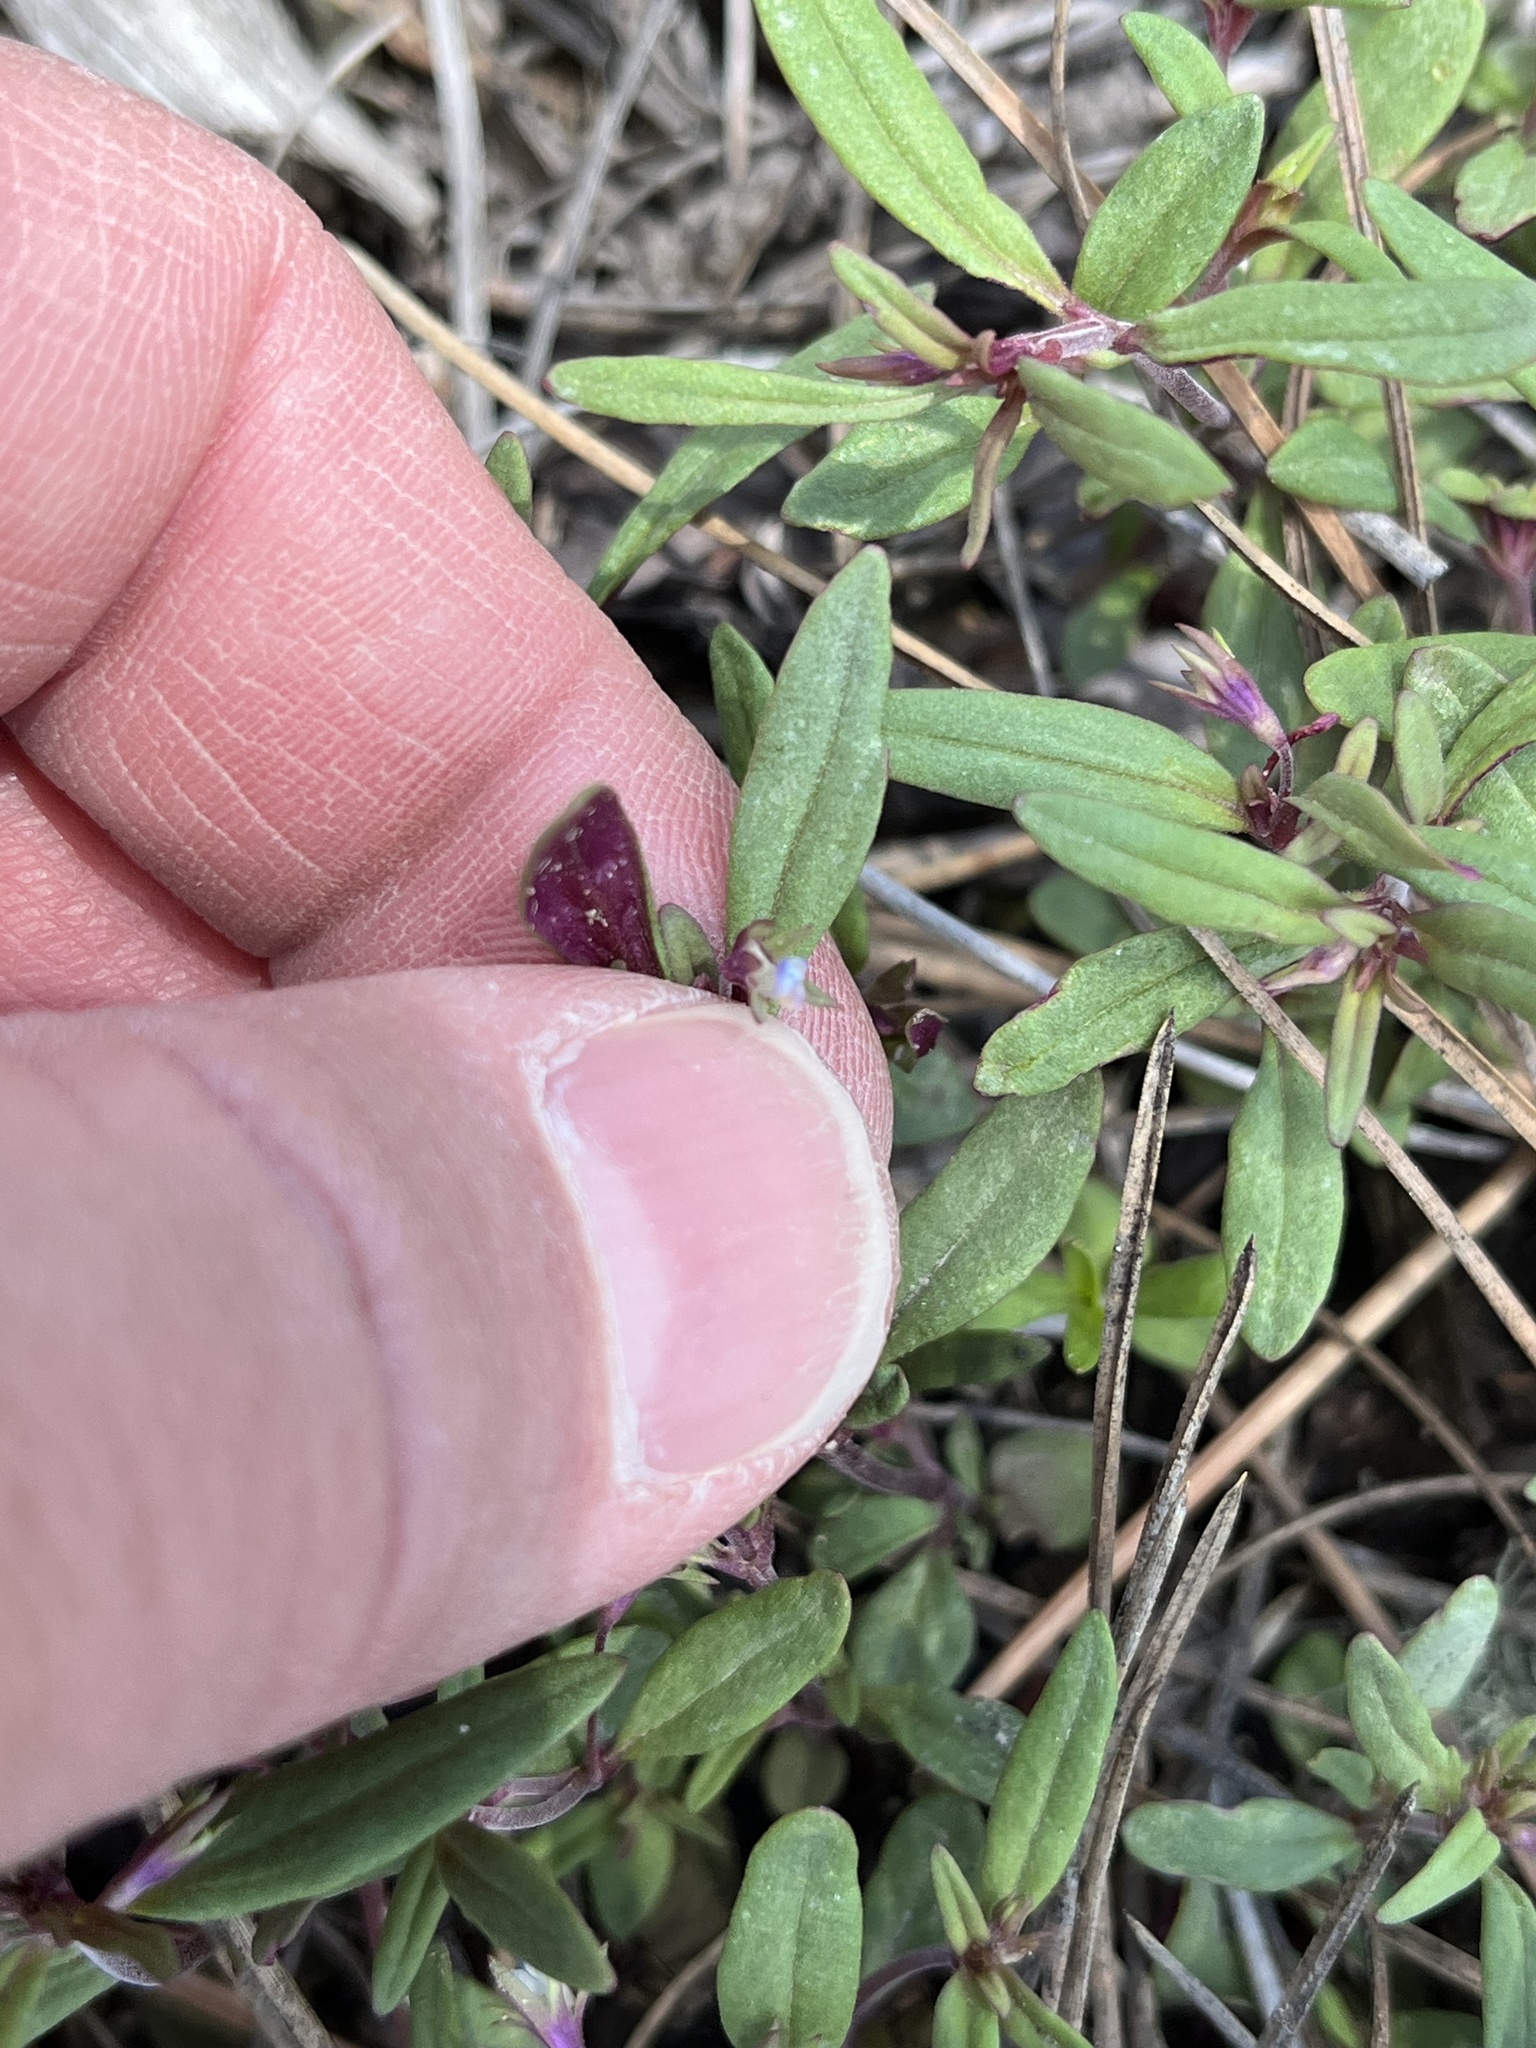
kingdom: Plantae
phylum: Tracheophyta
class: Magnoliopsida
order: Lamiales
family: Plantaginaceae
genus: Collinsia
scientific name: Collinsia parviflora
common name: Blue-lips
